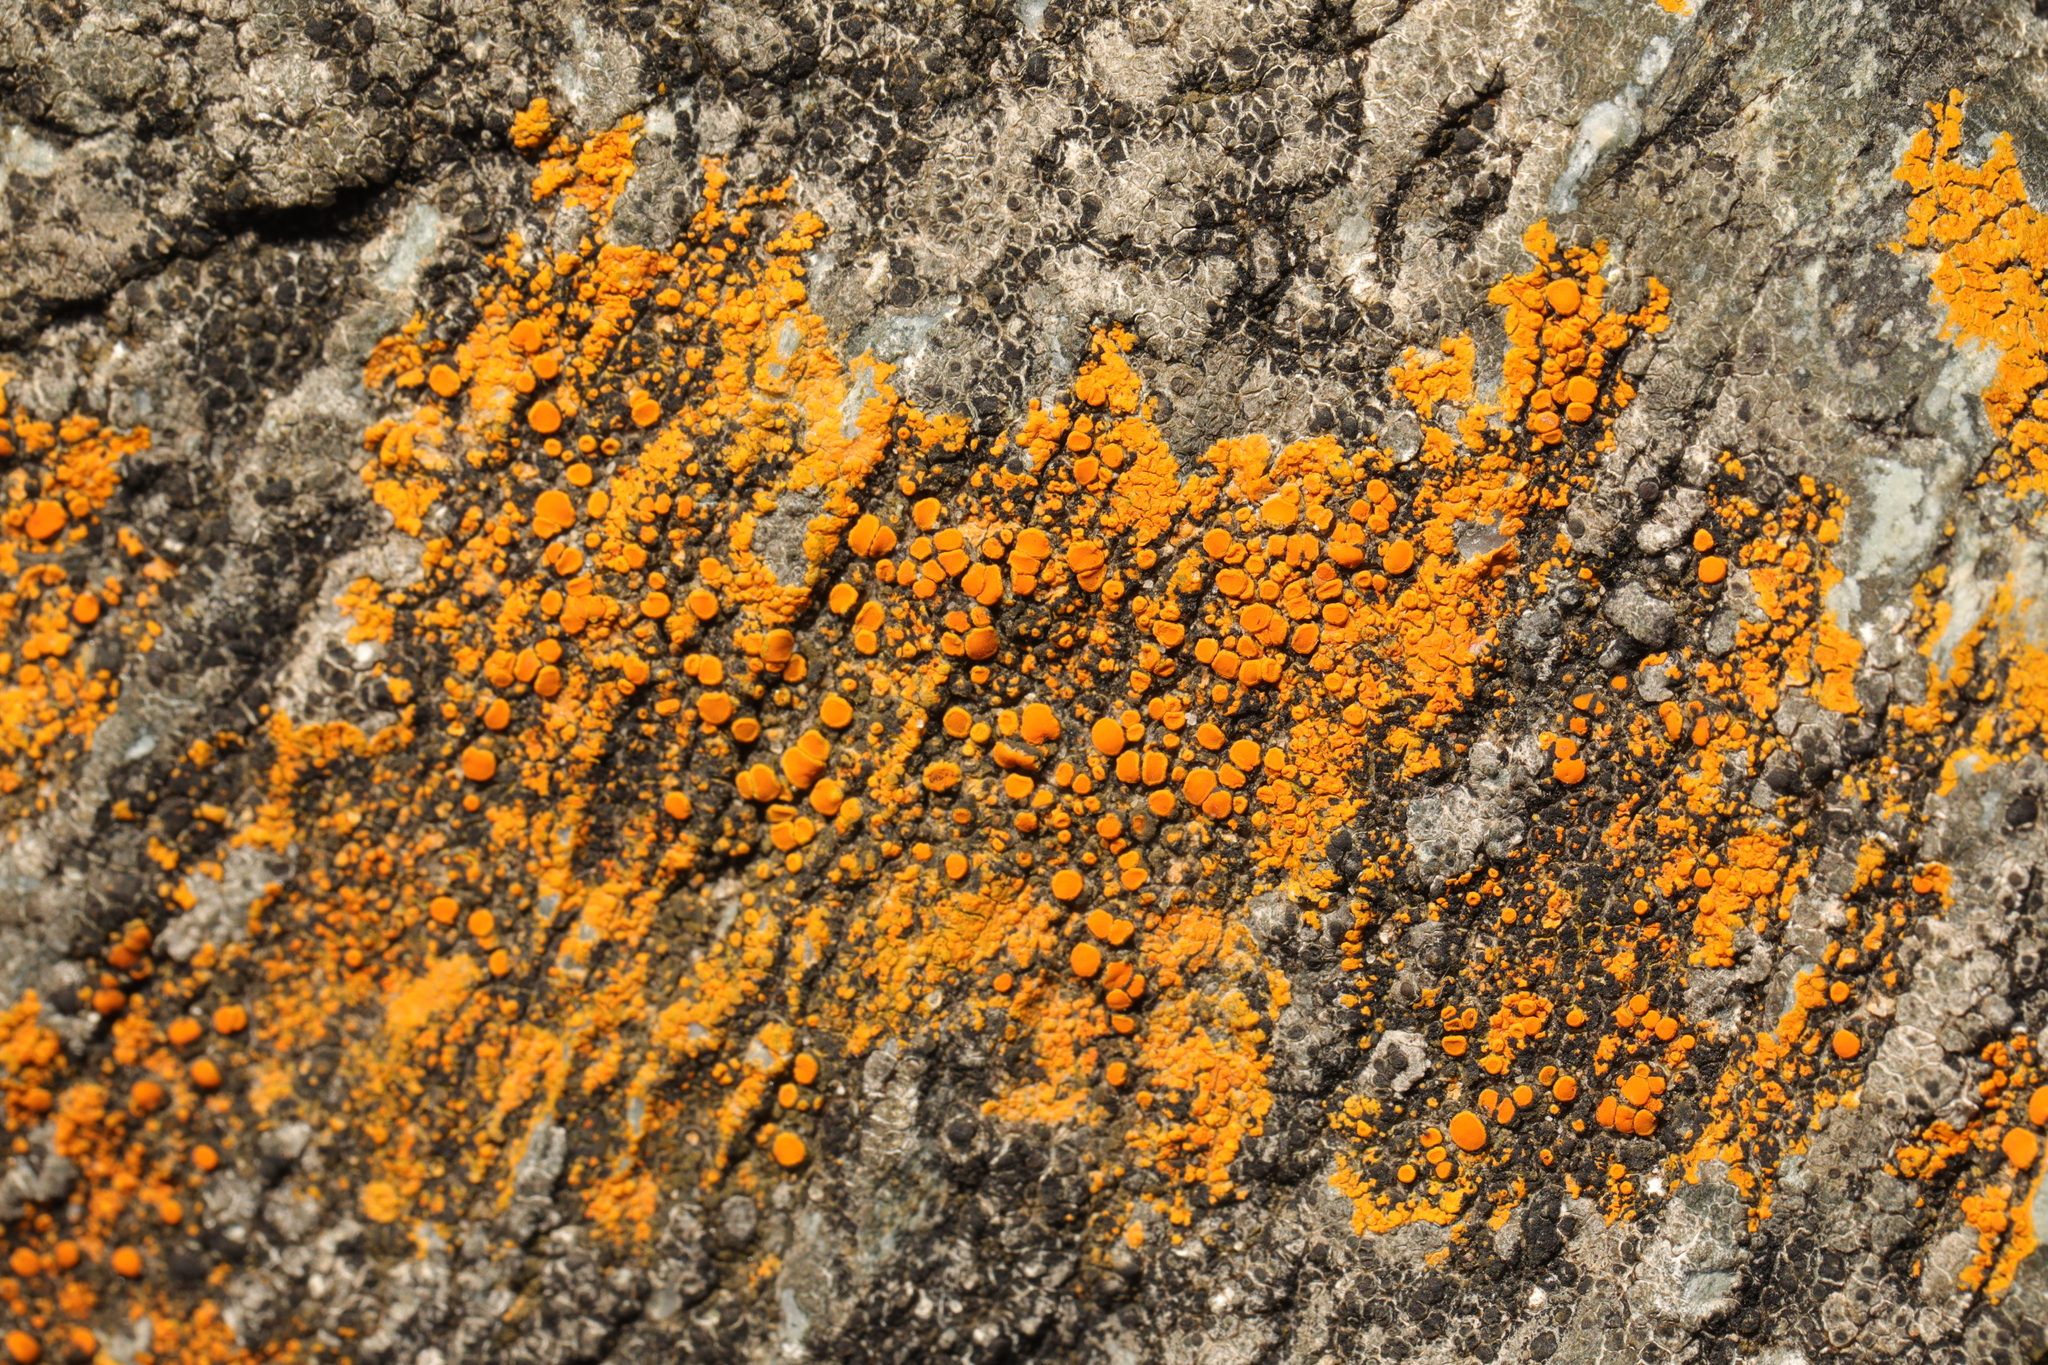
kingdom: Fungi
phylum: Ascomycota
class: Lecanoromycetes
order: Teloschistales
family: Teloschistaceae
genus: Flavoplaca
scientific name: Flavoplaca marina
